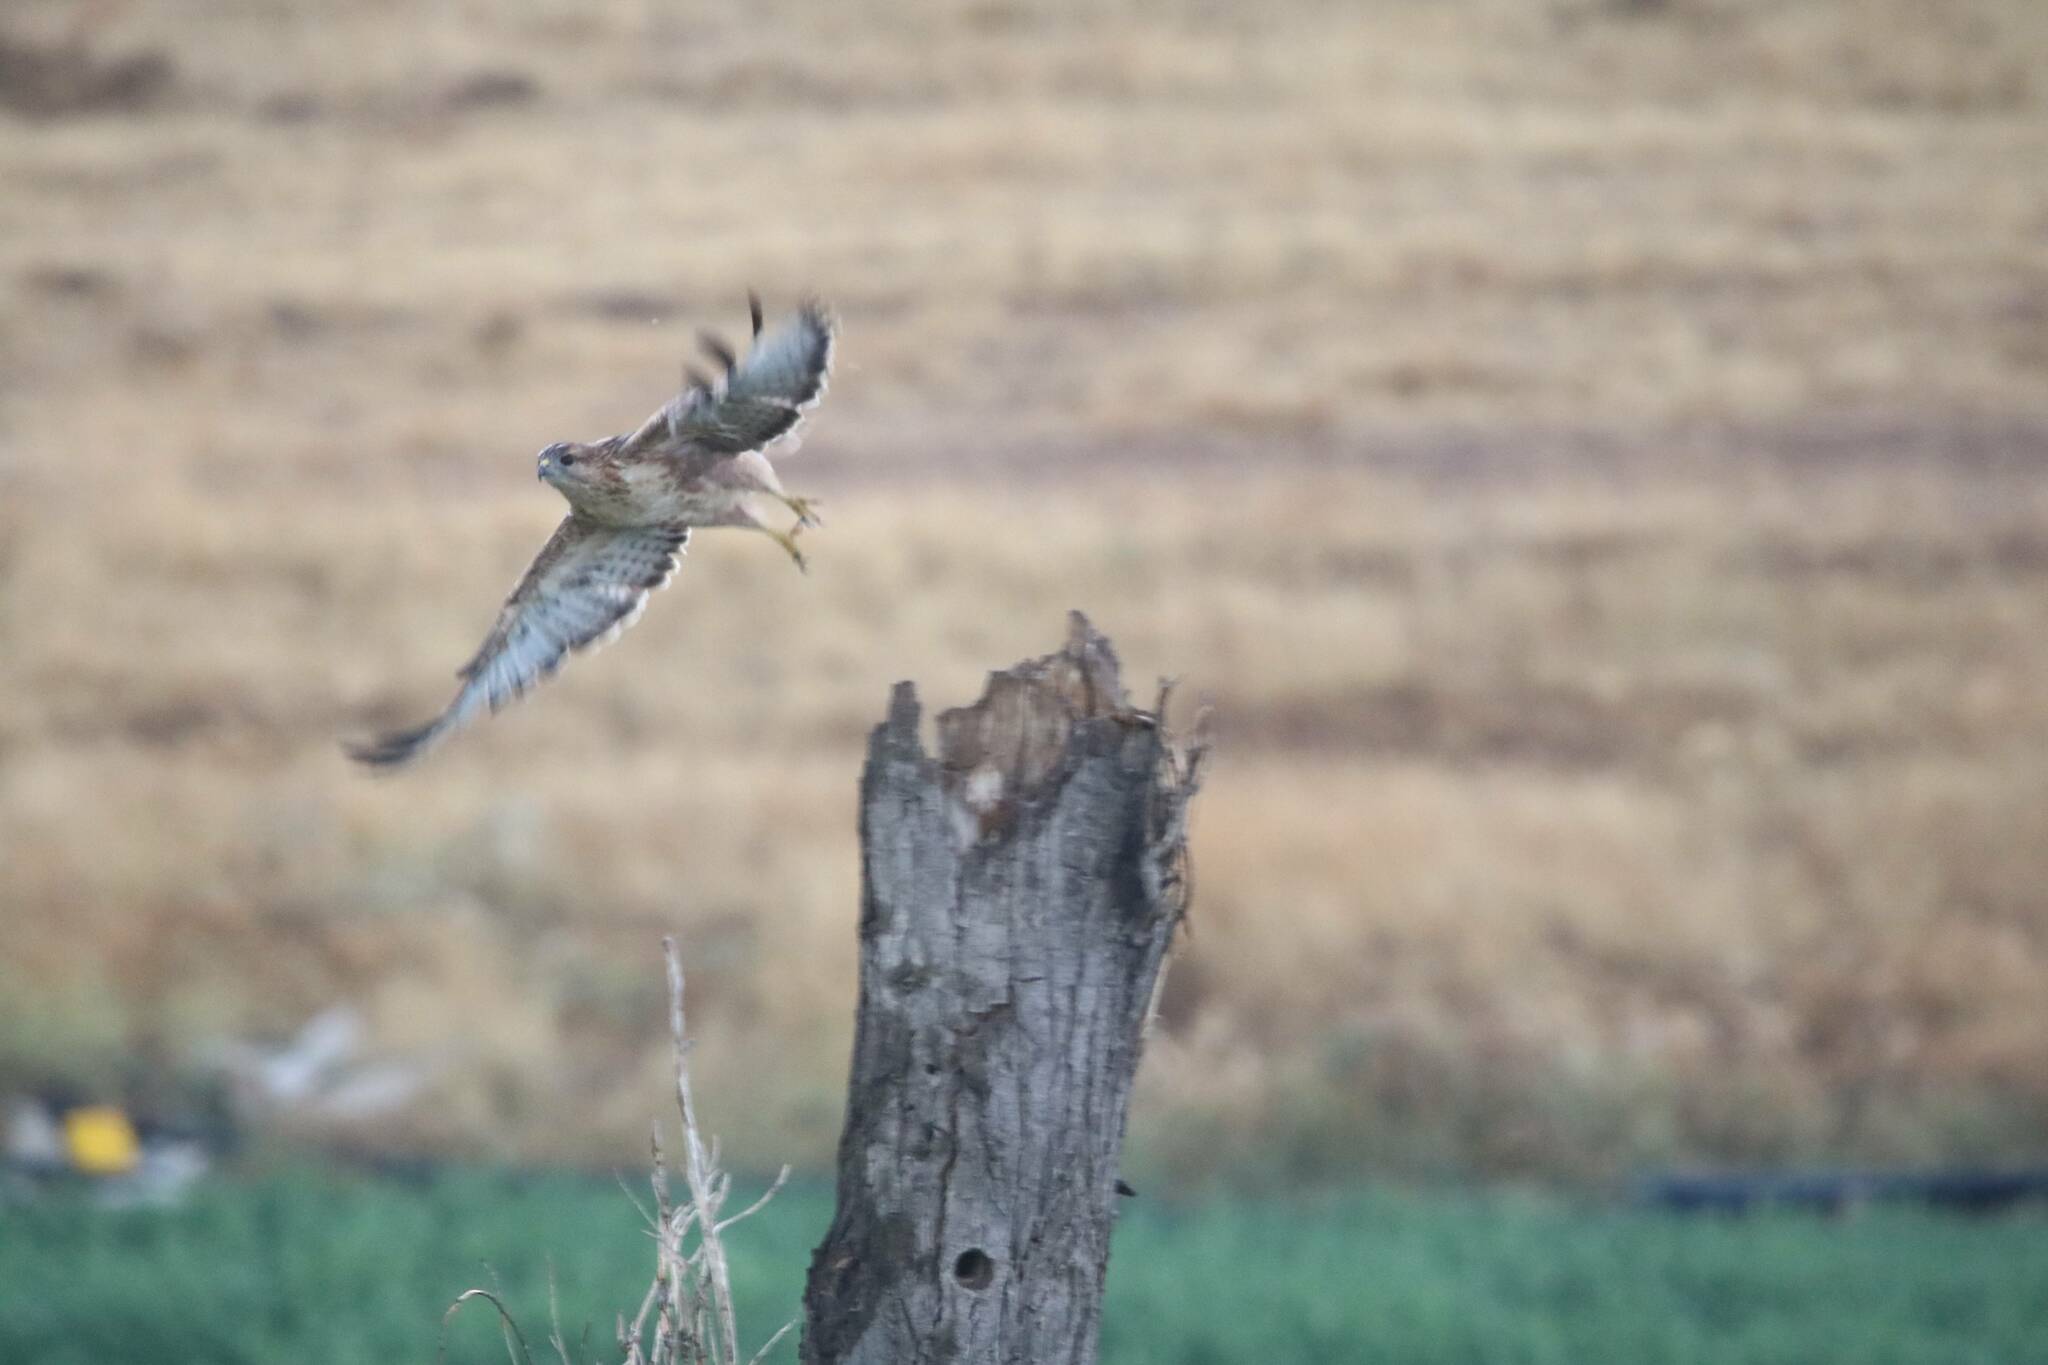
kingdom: Animalia
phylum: Chordata
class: Aves
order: Accipitriformes
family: Accipitridae
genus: Buteo
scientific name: Buteo buteo
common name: Common buzzard
